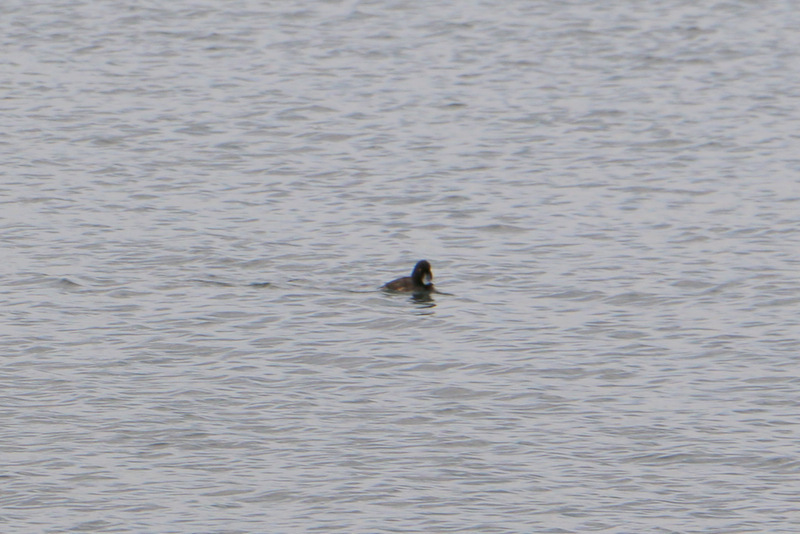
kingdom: Animalia
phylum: Chordata
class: Aves
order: Anseriformes
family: Anatidae
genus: Aythya
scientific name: Aythya baeri
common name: Baer's pochard
